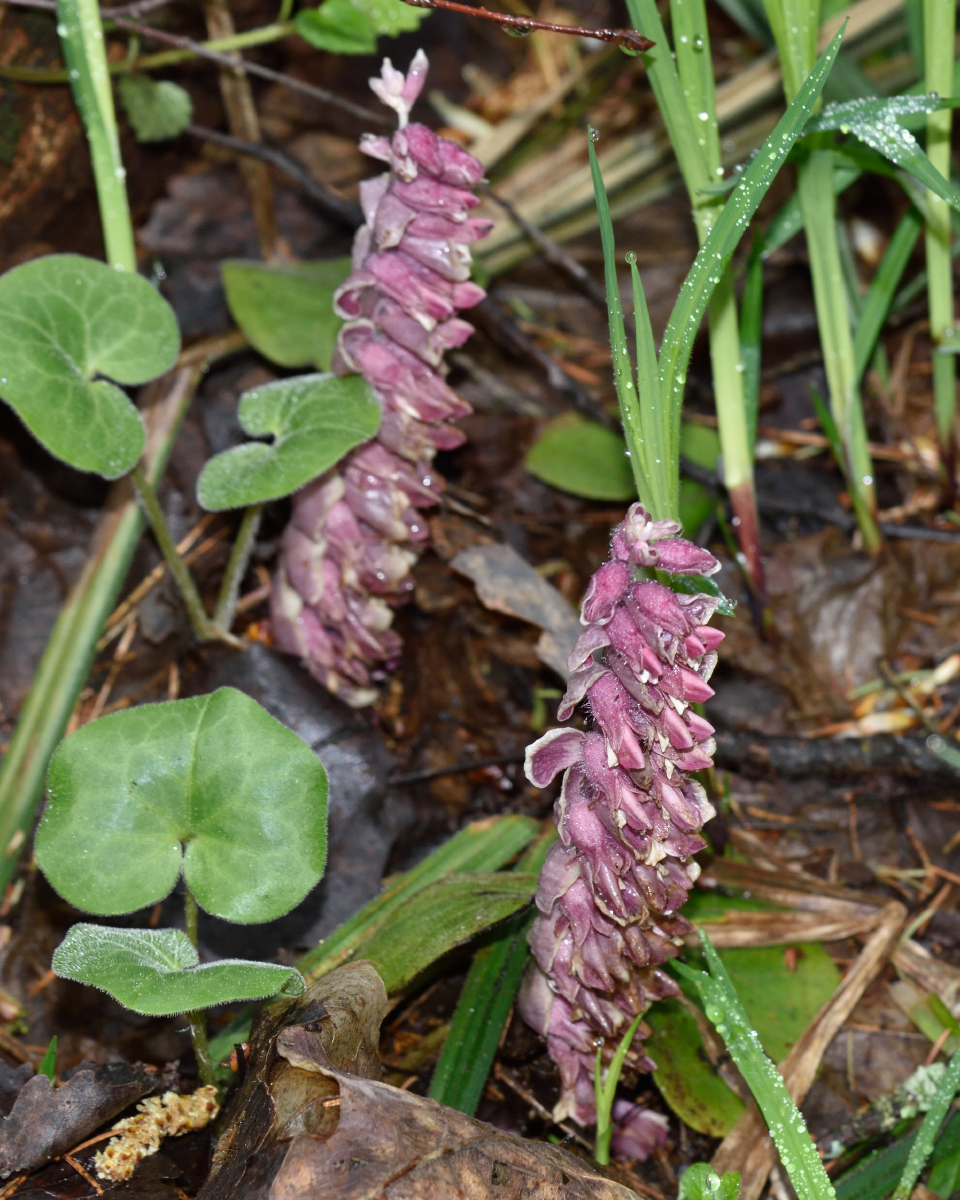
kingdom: Plantae
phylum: Tracheophyta
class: Magnoliopsida
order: Lamiales
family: Orobanchaceae
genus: Lathraea
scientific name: Lathraea squamaria
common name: Toothwort
